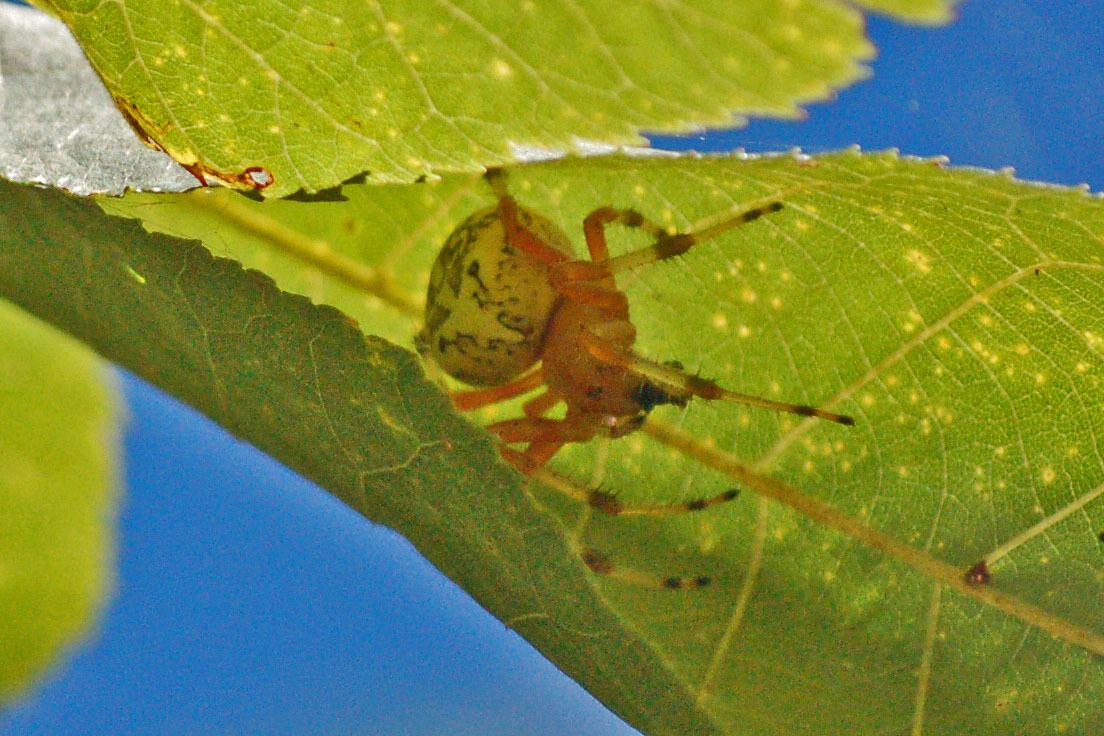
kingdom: Animalia
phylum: Arthropoda
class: Arachnida
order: Araneae
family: Araneidae
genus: Araneus
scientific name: Araneus marmoreus
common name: Marbled orbweaver
